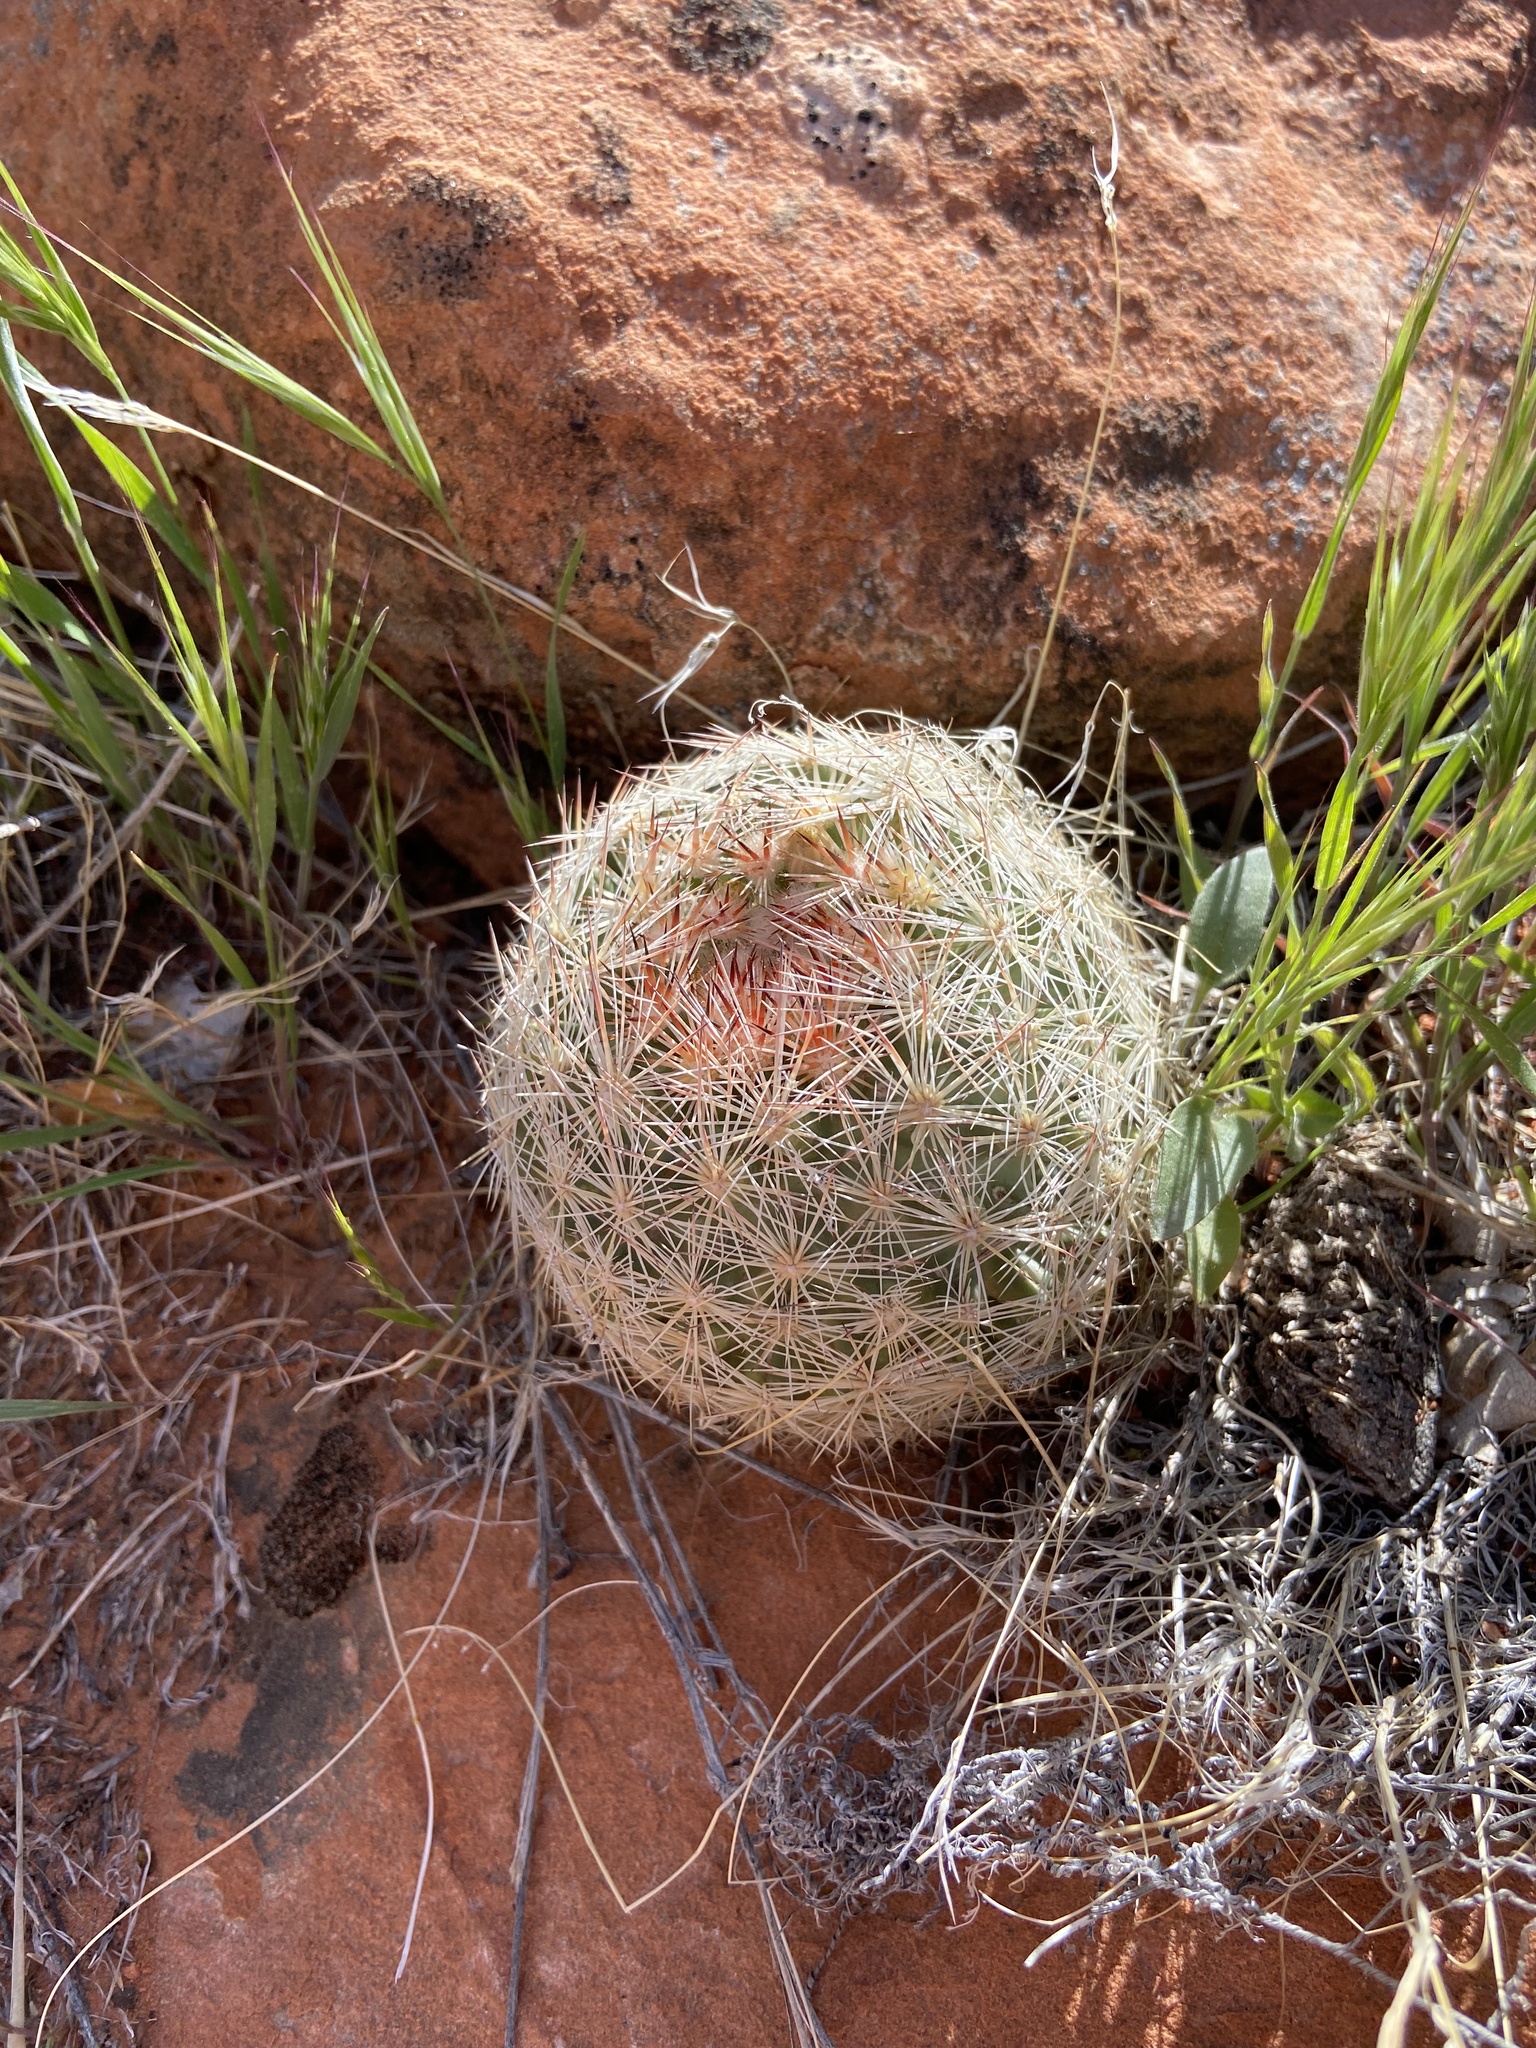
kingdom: Plantae
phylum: Tracheophyta
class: Magnoliopsida
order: Caryophyllales
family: Cactaceae
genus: Pelecyphora
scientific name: Pelecyphora dasyacantha
